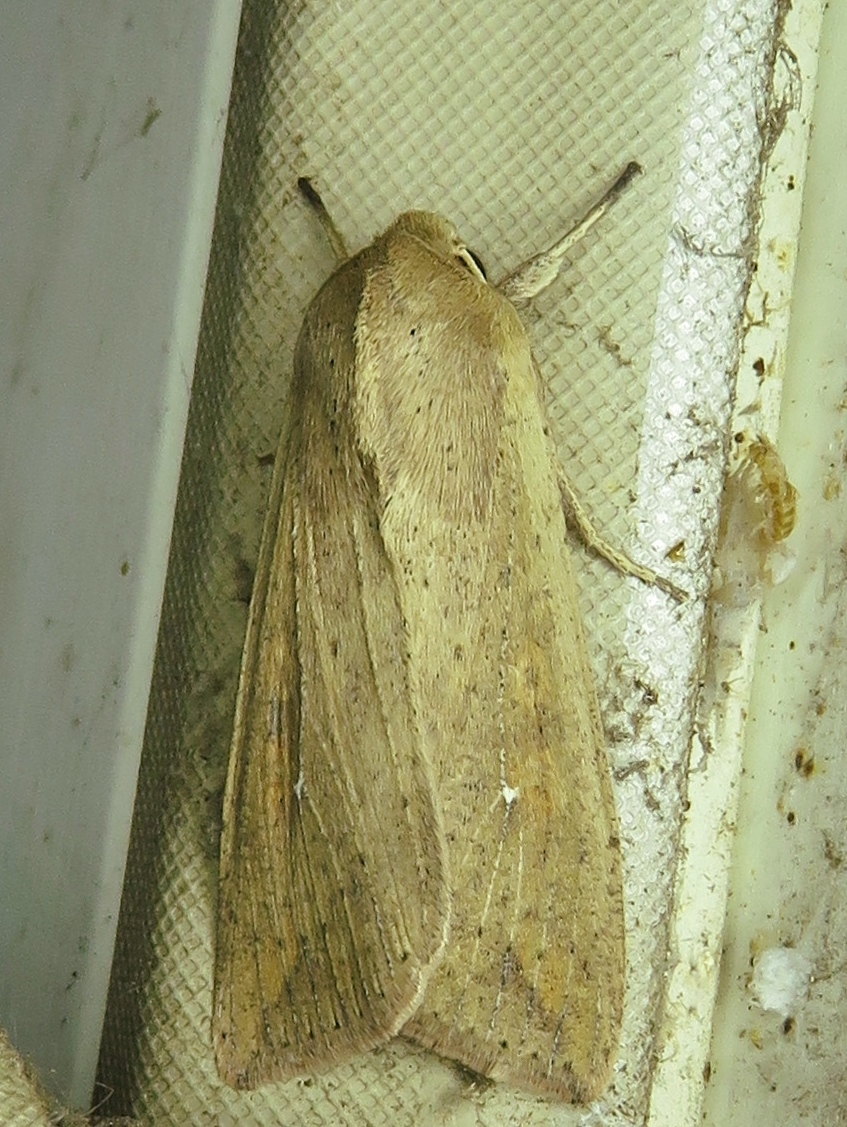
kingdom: Animalia
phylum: Arthropoda
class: Insecta
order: Lepidoptera
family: Noctuidae
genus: Mythimna
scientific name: Mythimna unipuncta
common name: White-speck
